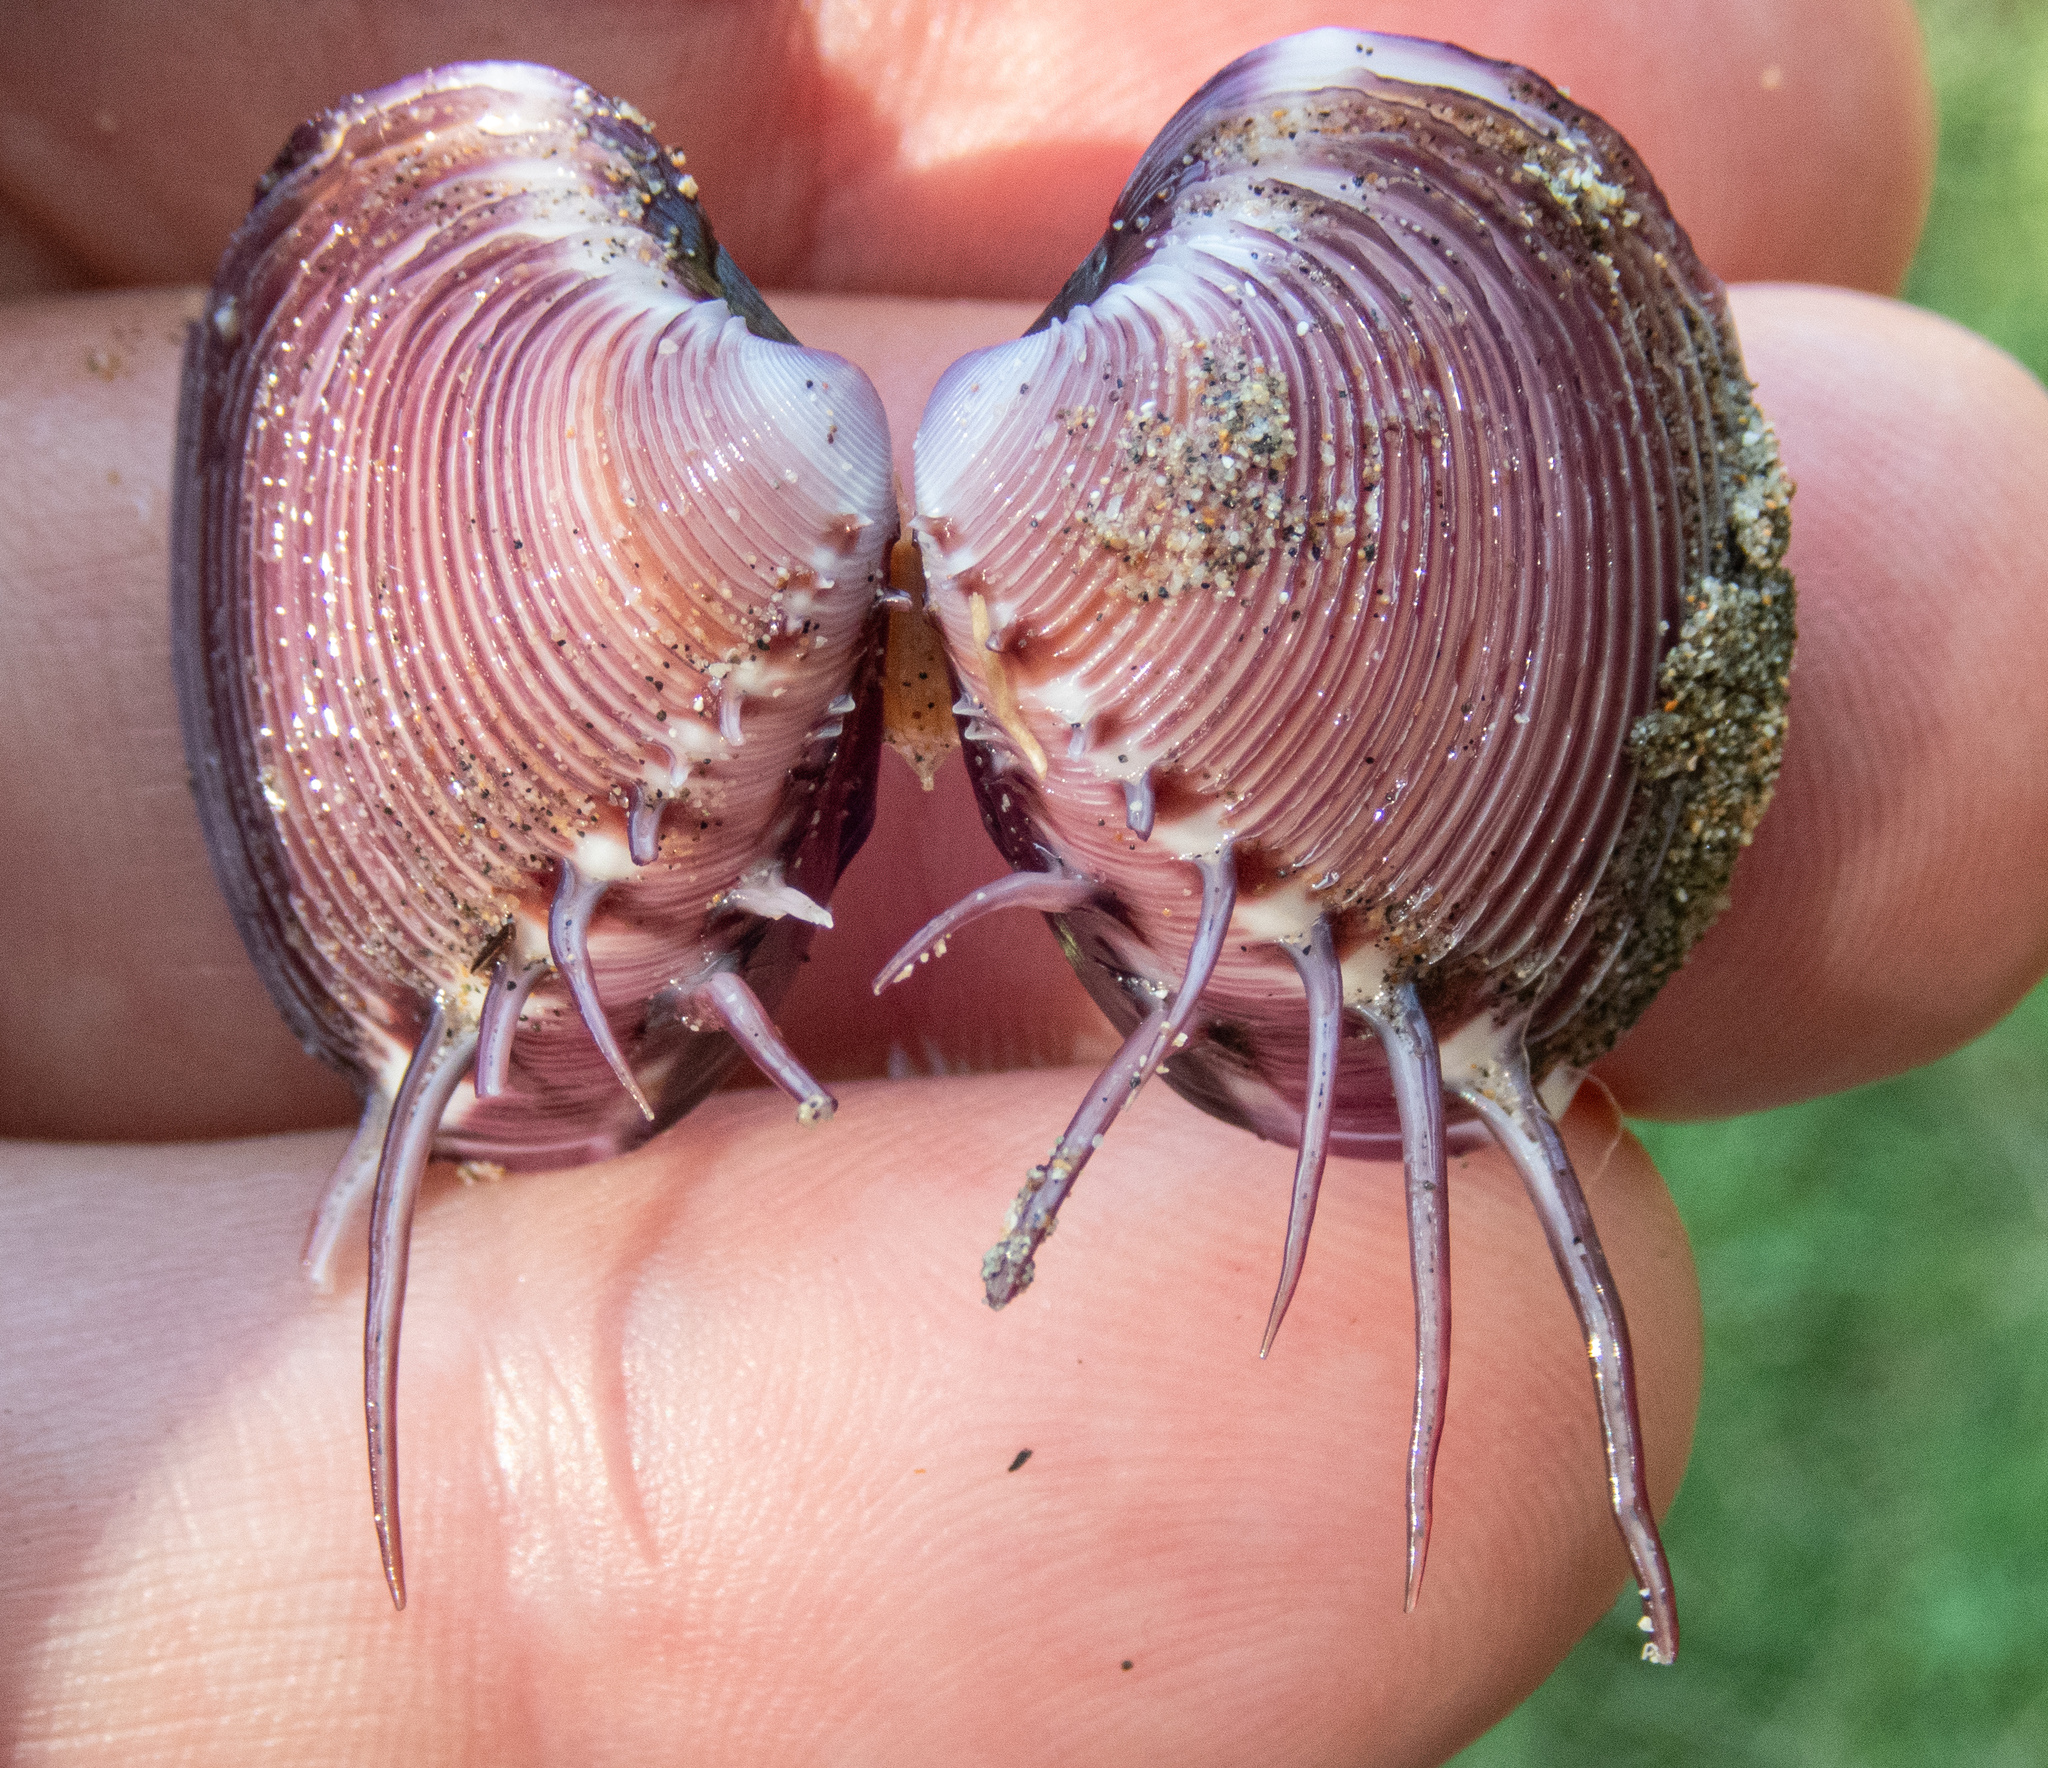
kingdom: Animalia
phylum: Mollusca
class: Bivalvia
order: Venerida
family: Veneridae
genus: Hysteroconcha
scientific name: Hysteroconcha lupanaria
